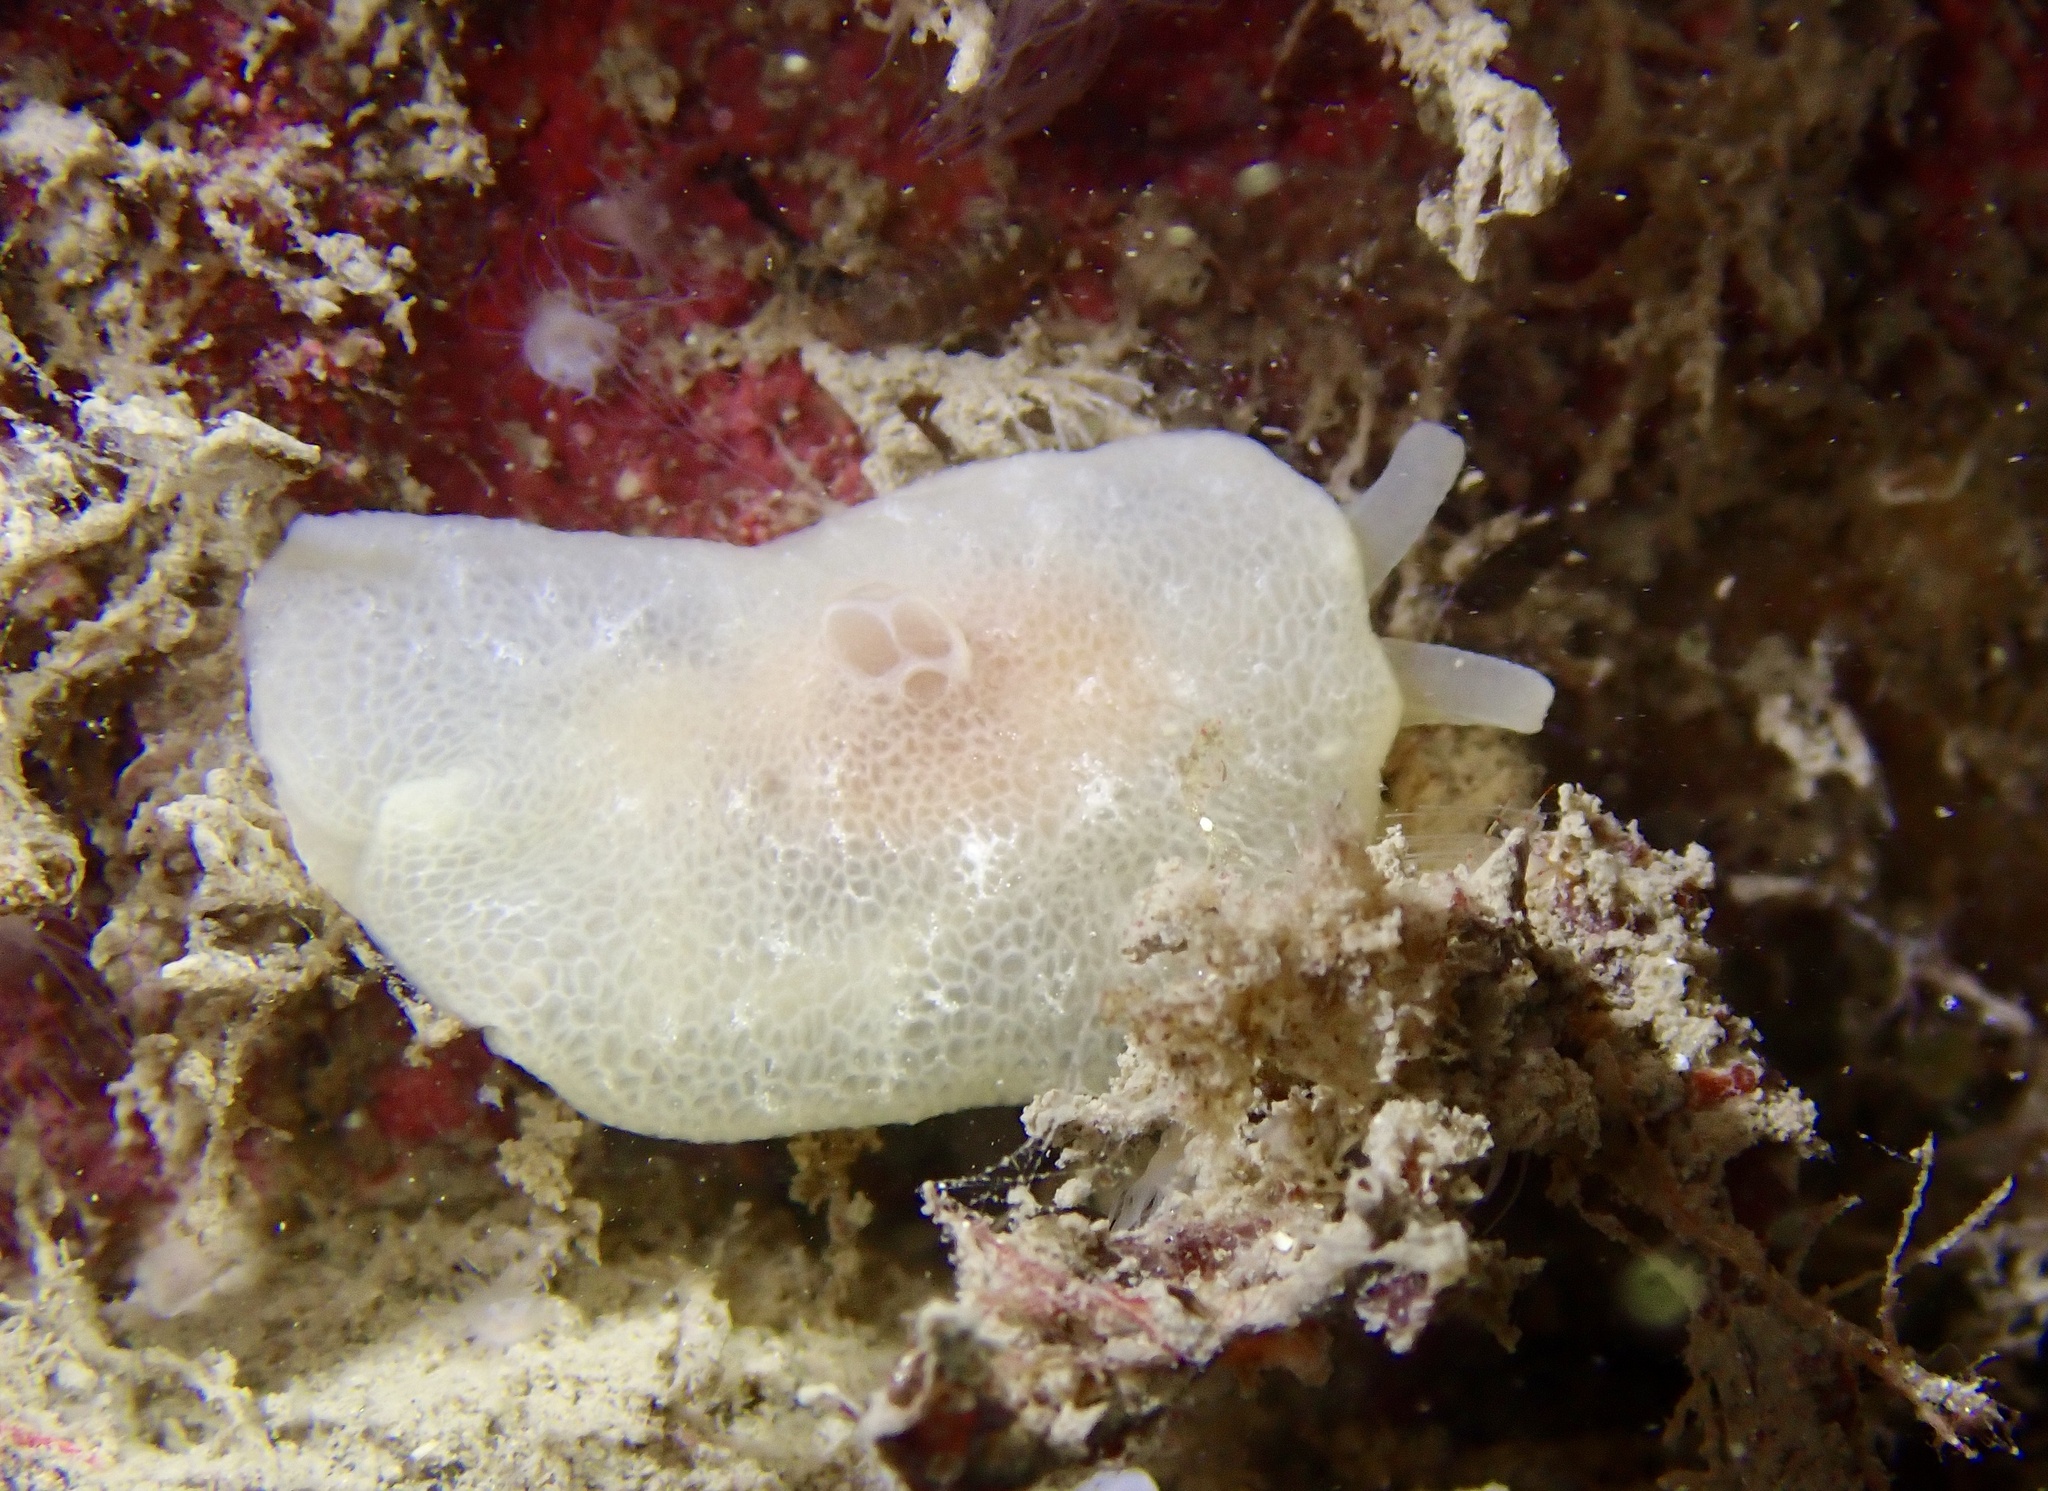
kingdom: Animalia
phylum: Mollusca
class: Gastropoda
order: Pleurobranchida
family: Pleurobranchidae
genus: Berthella
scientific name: Berthella plumula
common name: Yellow-plumed sea slug
